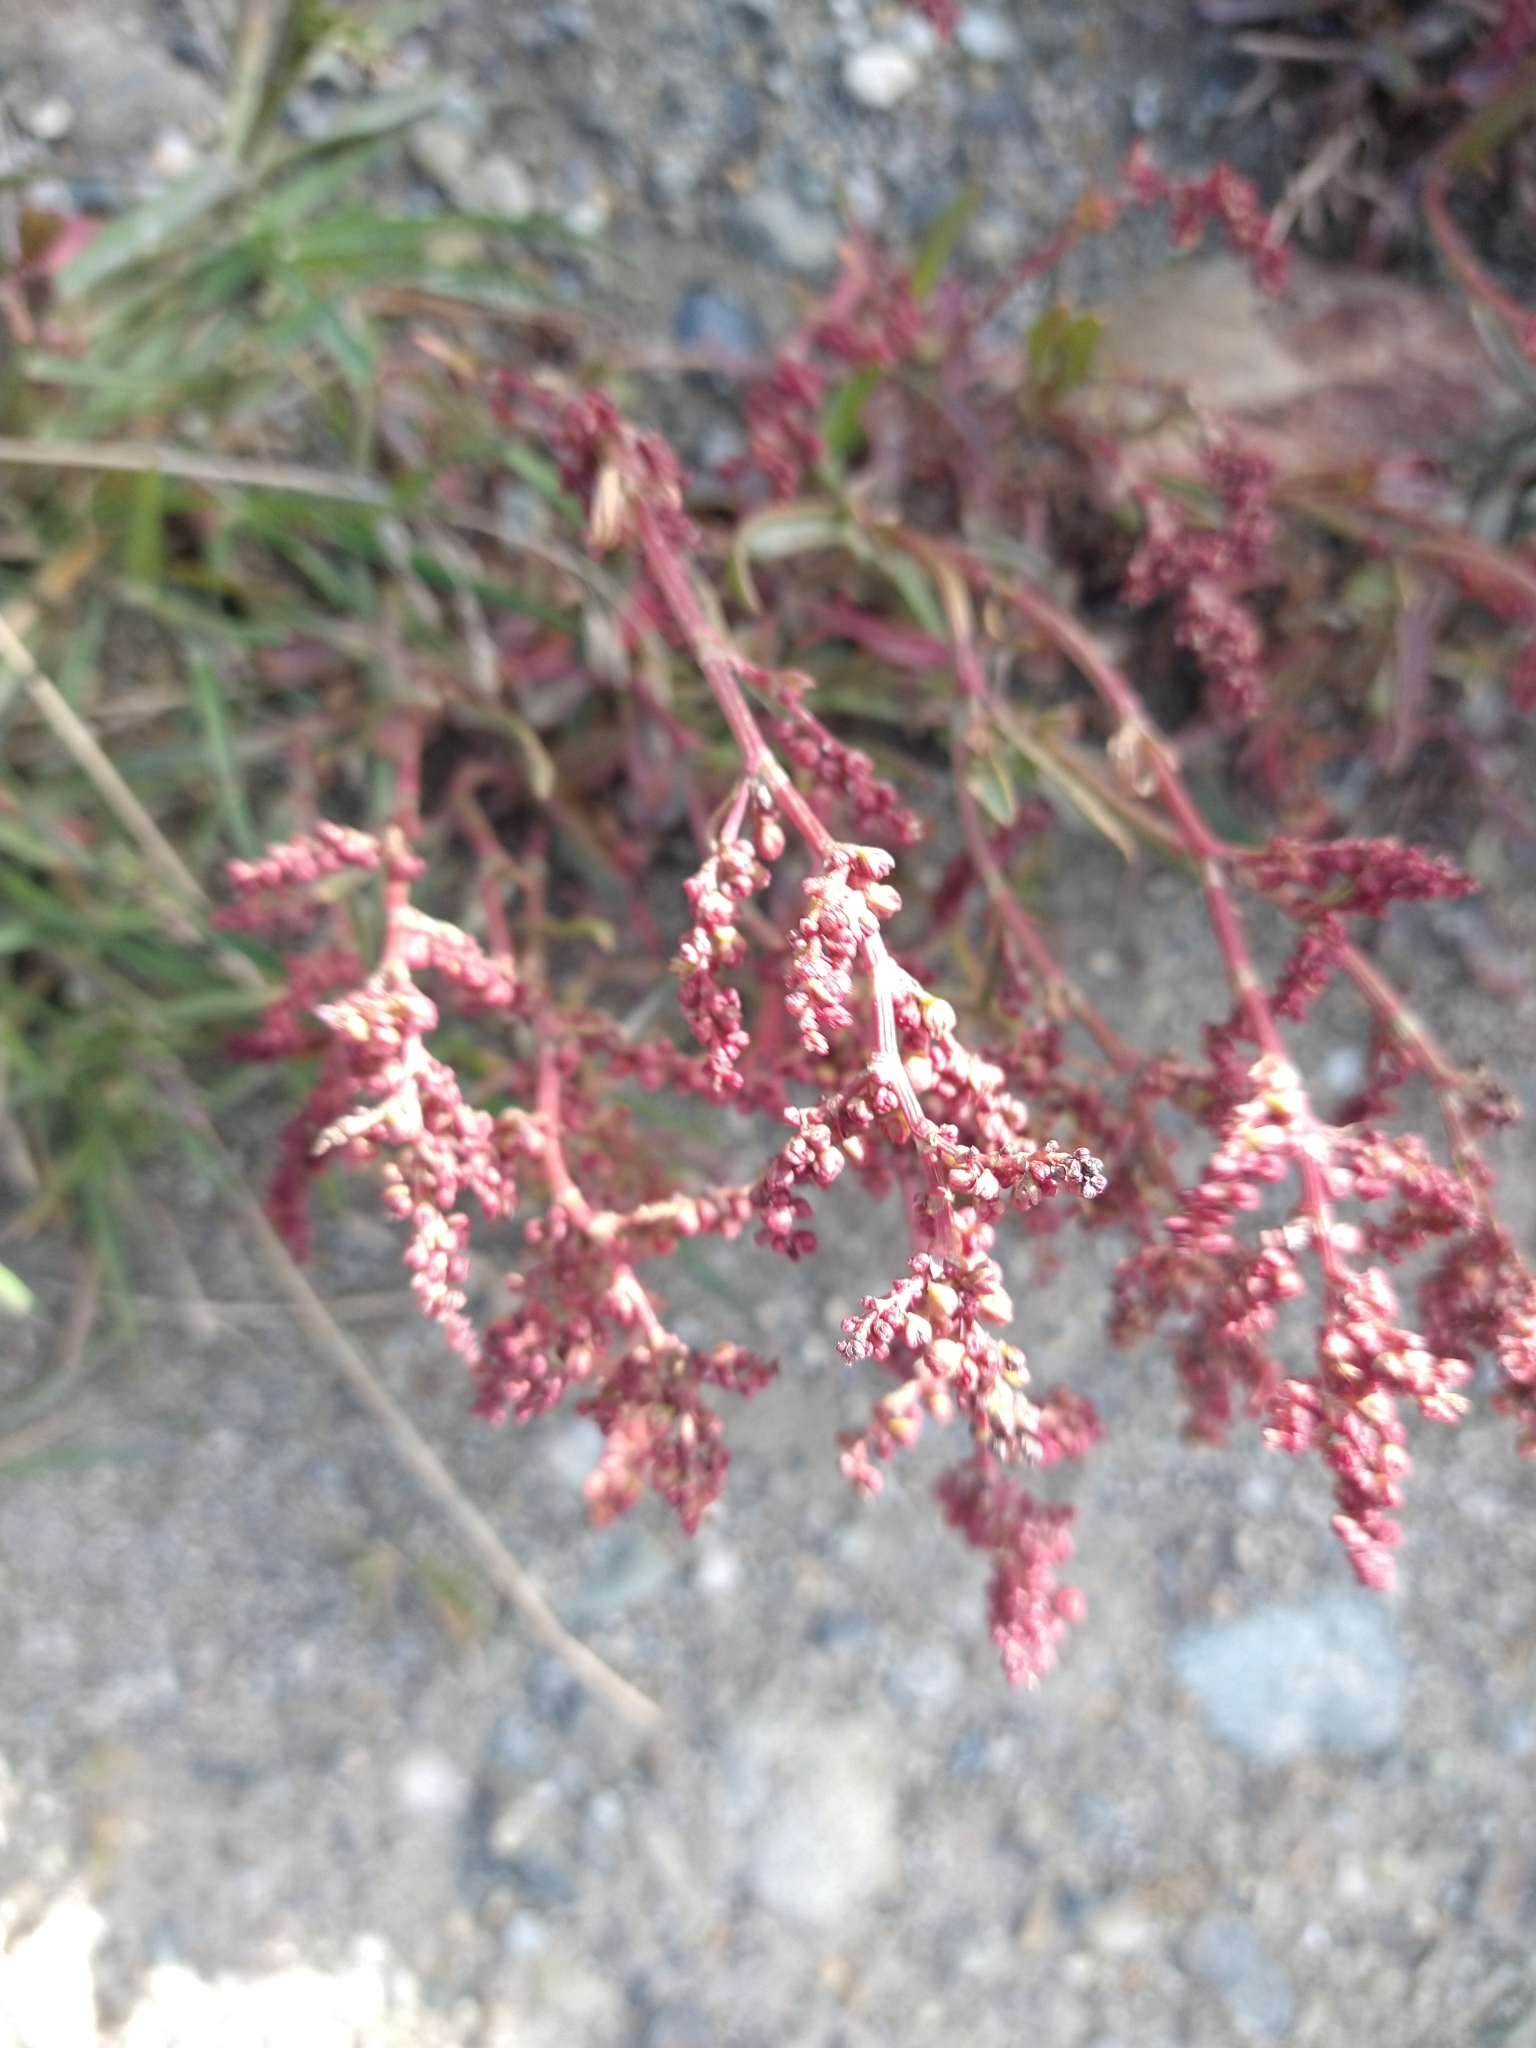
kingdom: Plantae
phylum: Tracheophyta
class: Magnoliopsida
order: Caryophyllales
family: Polygonaceae
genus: Rumex
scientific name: Rumex acetosella
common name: Common sheep sorrel
